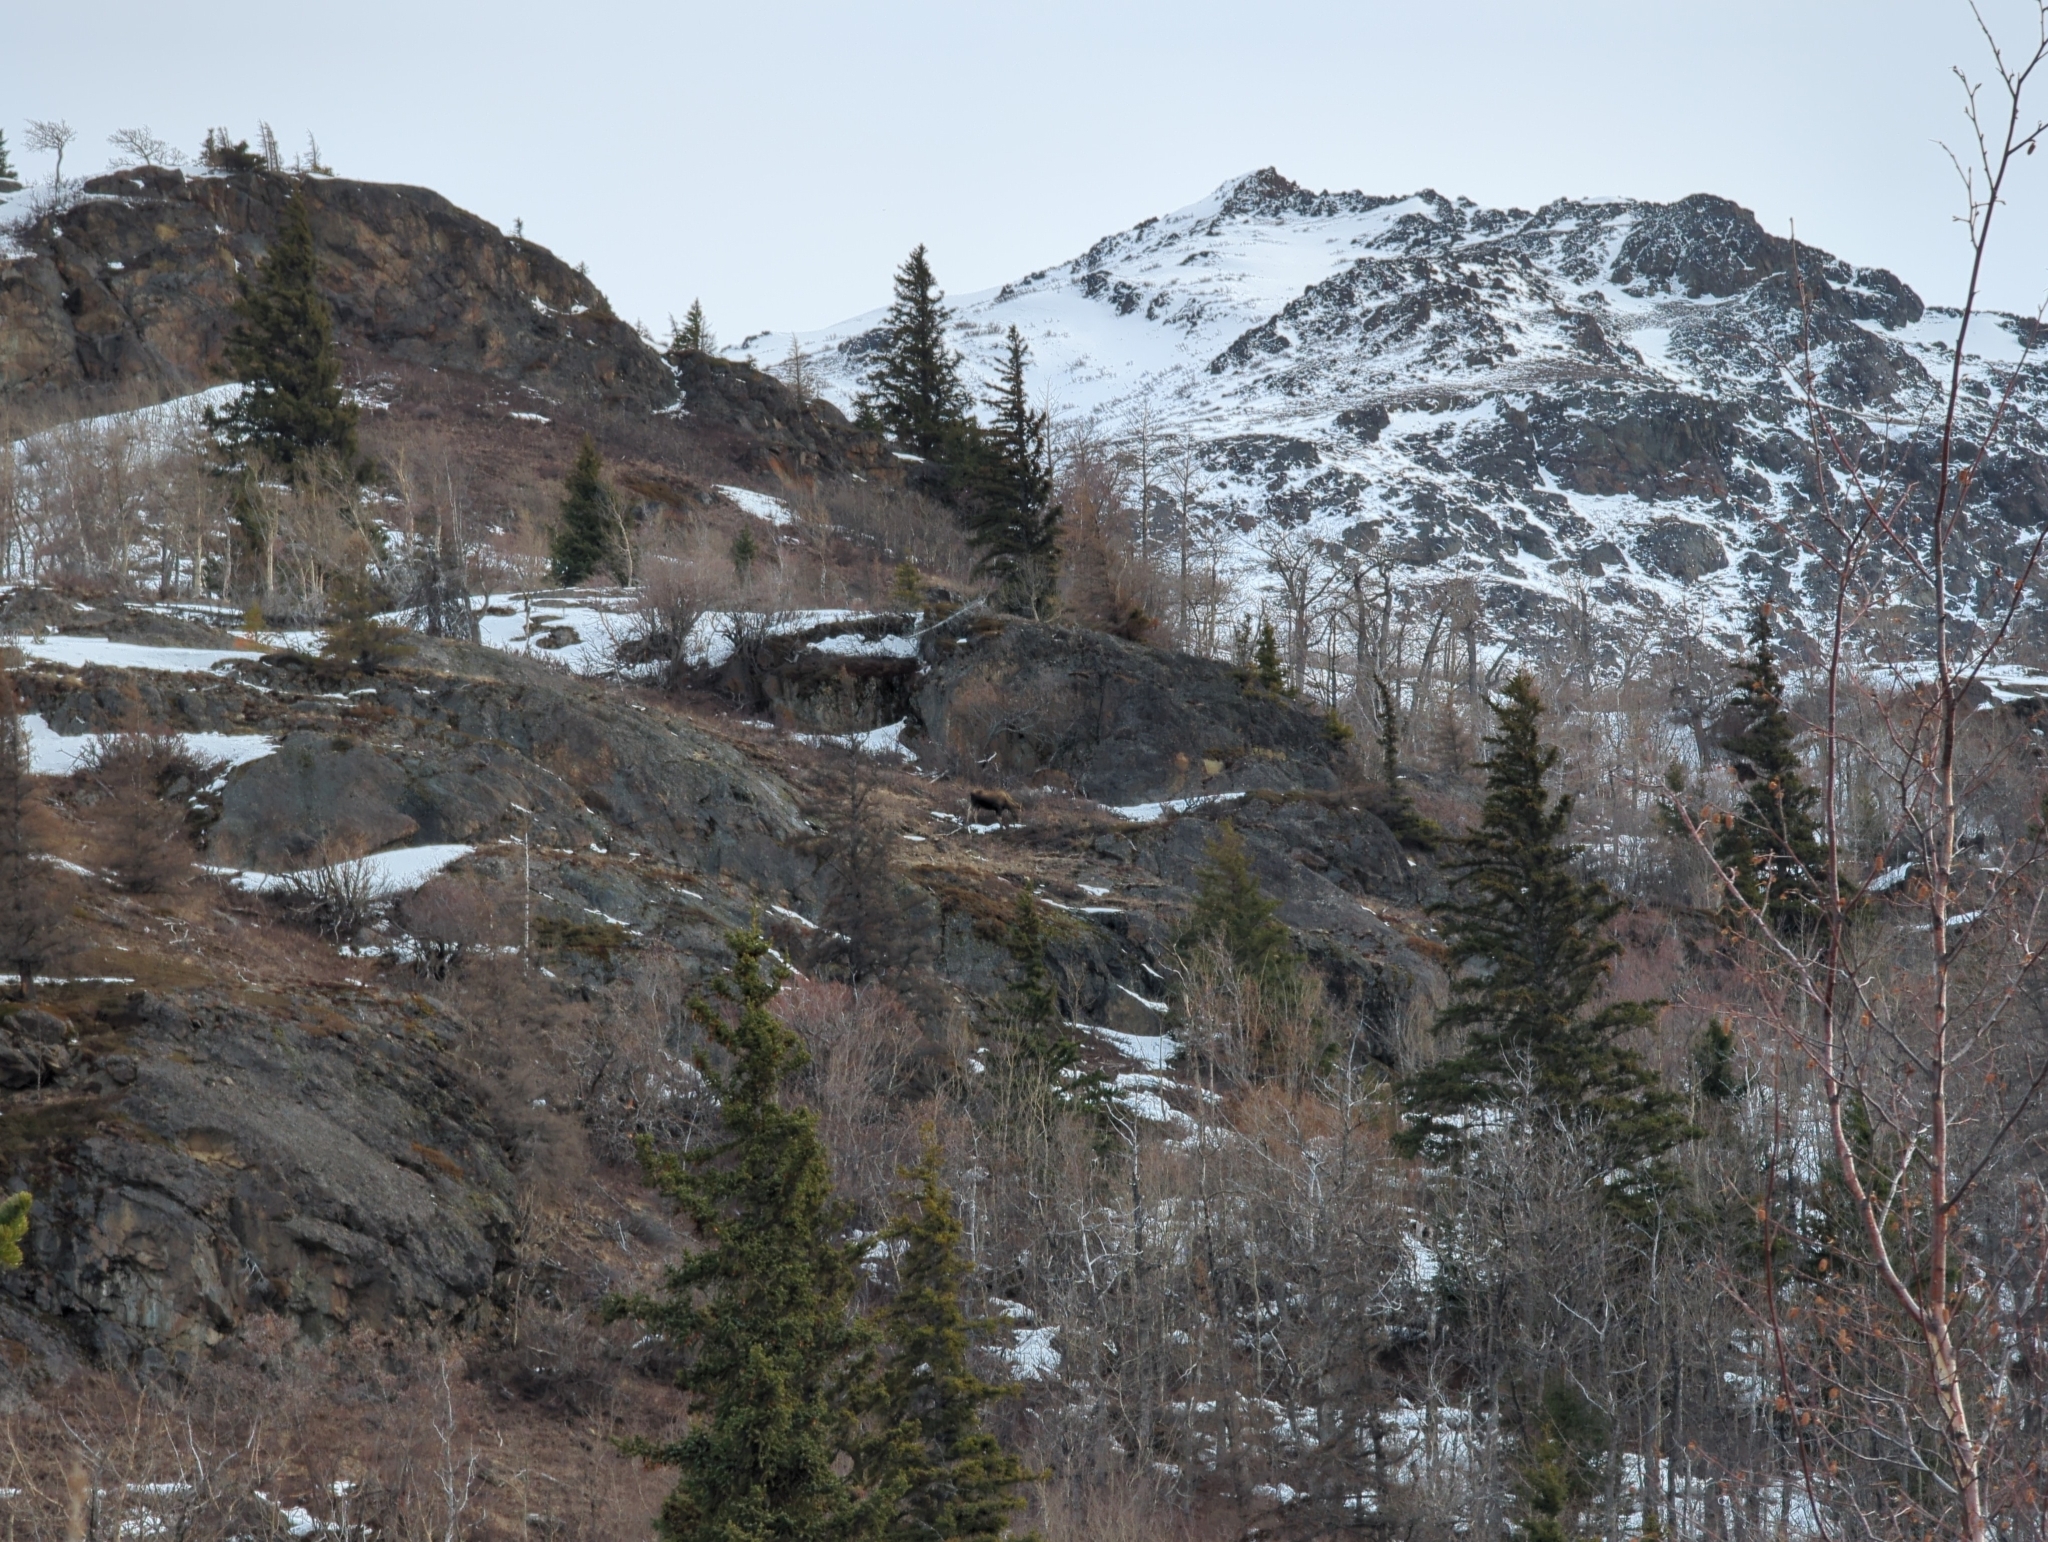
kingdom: Animalia
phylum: Chordata
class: Mammalia
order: Artiodactyla
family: Cervidae
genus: Alces
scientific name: Alces alces
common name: Moose
